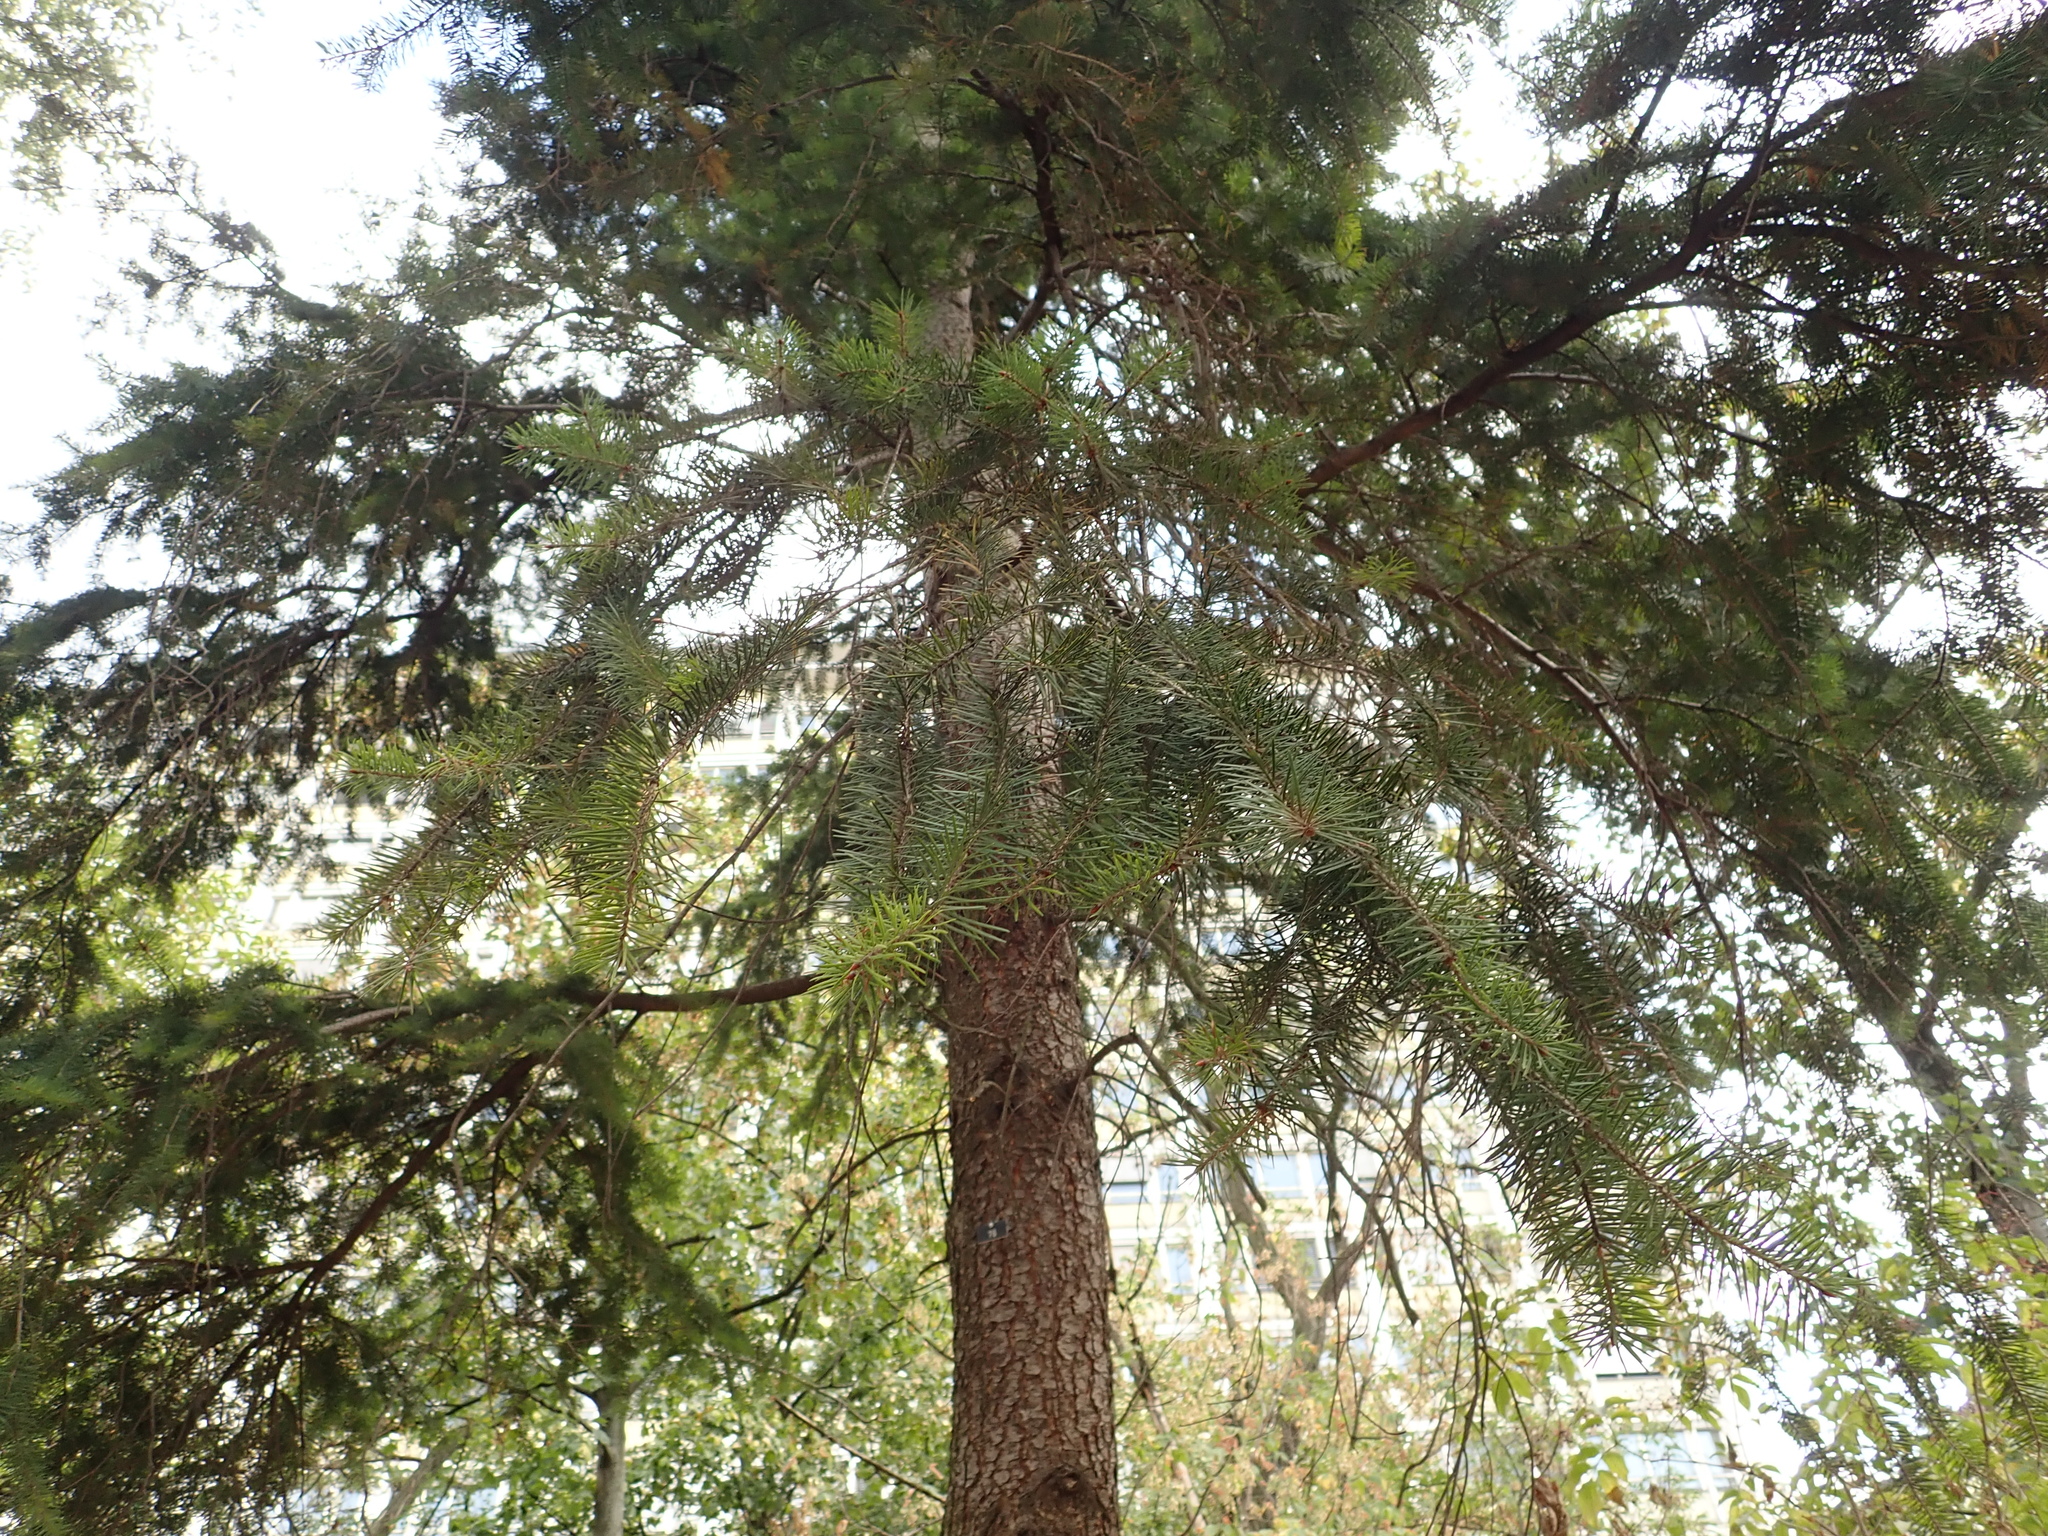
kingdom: Plantae
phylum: Tracheophyta
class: Pinopsida
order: Pinales
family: Pinaceae
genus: Pseudotsuga
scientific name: Pseudotsuga menziesii
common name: Douglas fir
